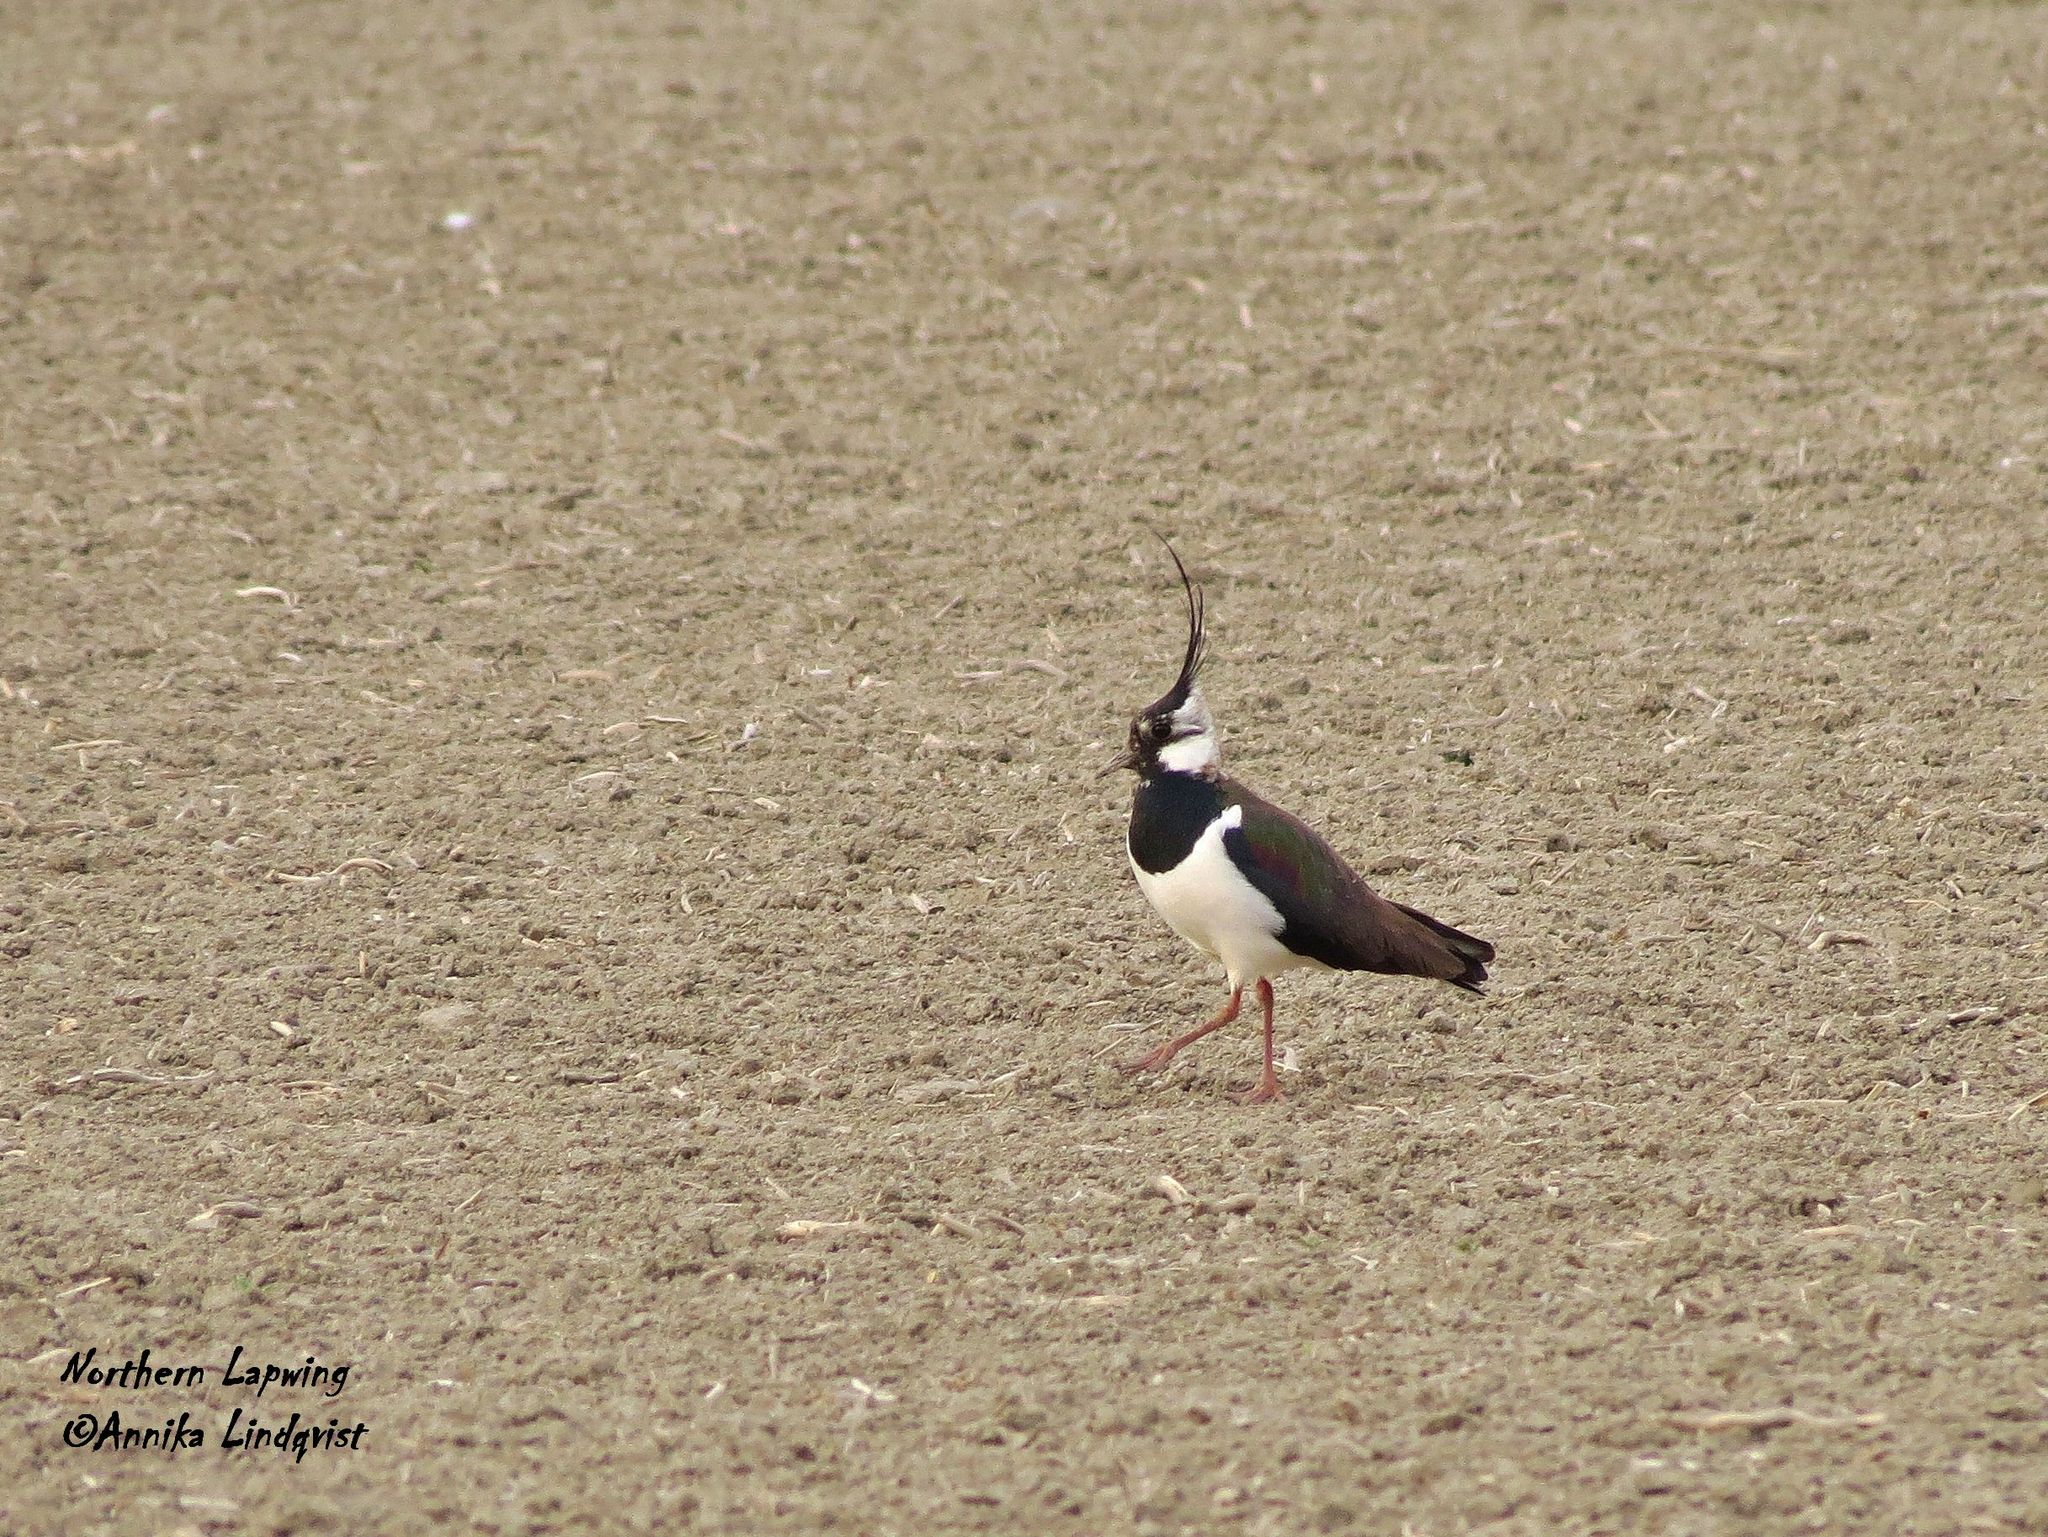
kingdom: Animalia
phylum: Chordata
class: Aves
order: Charadriiformes
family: Charadriidae
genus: Vanellus
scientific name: Vanellus vanellus
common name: Northern lapwing
